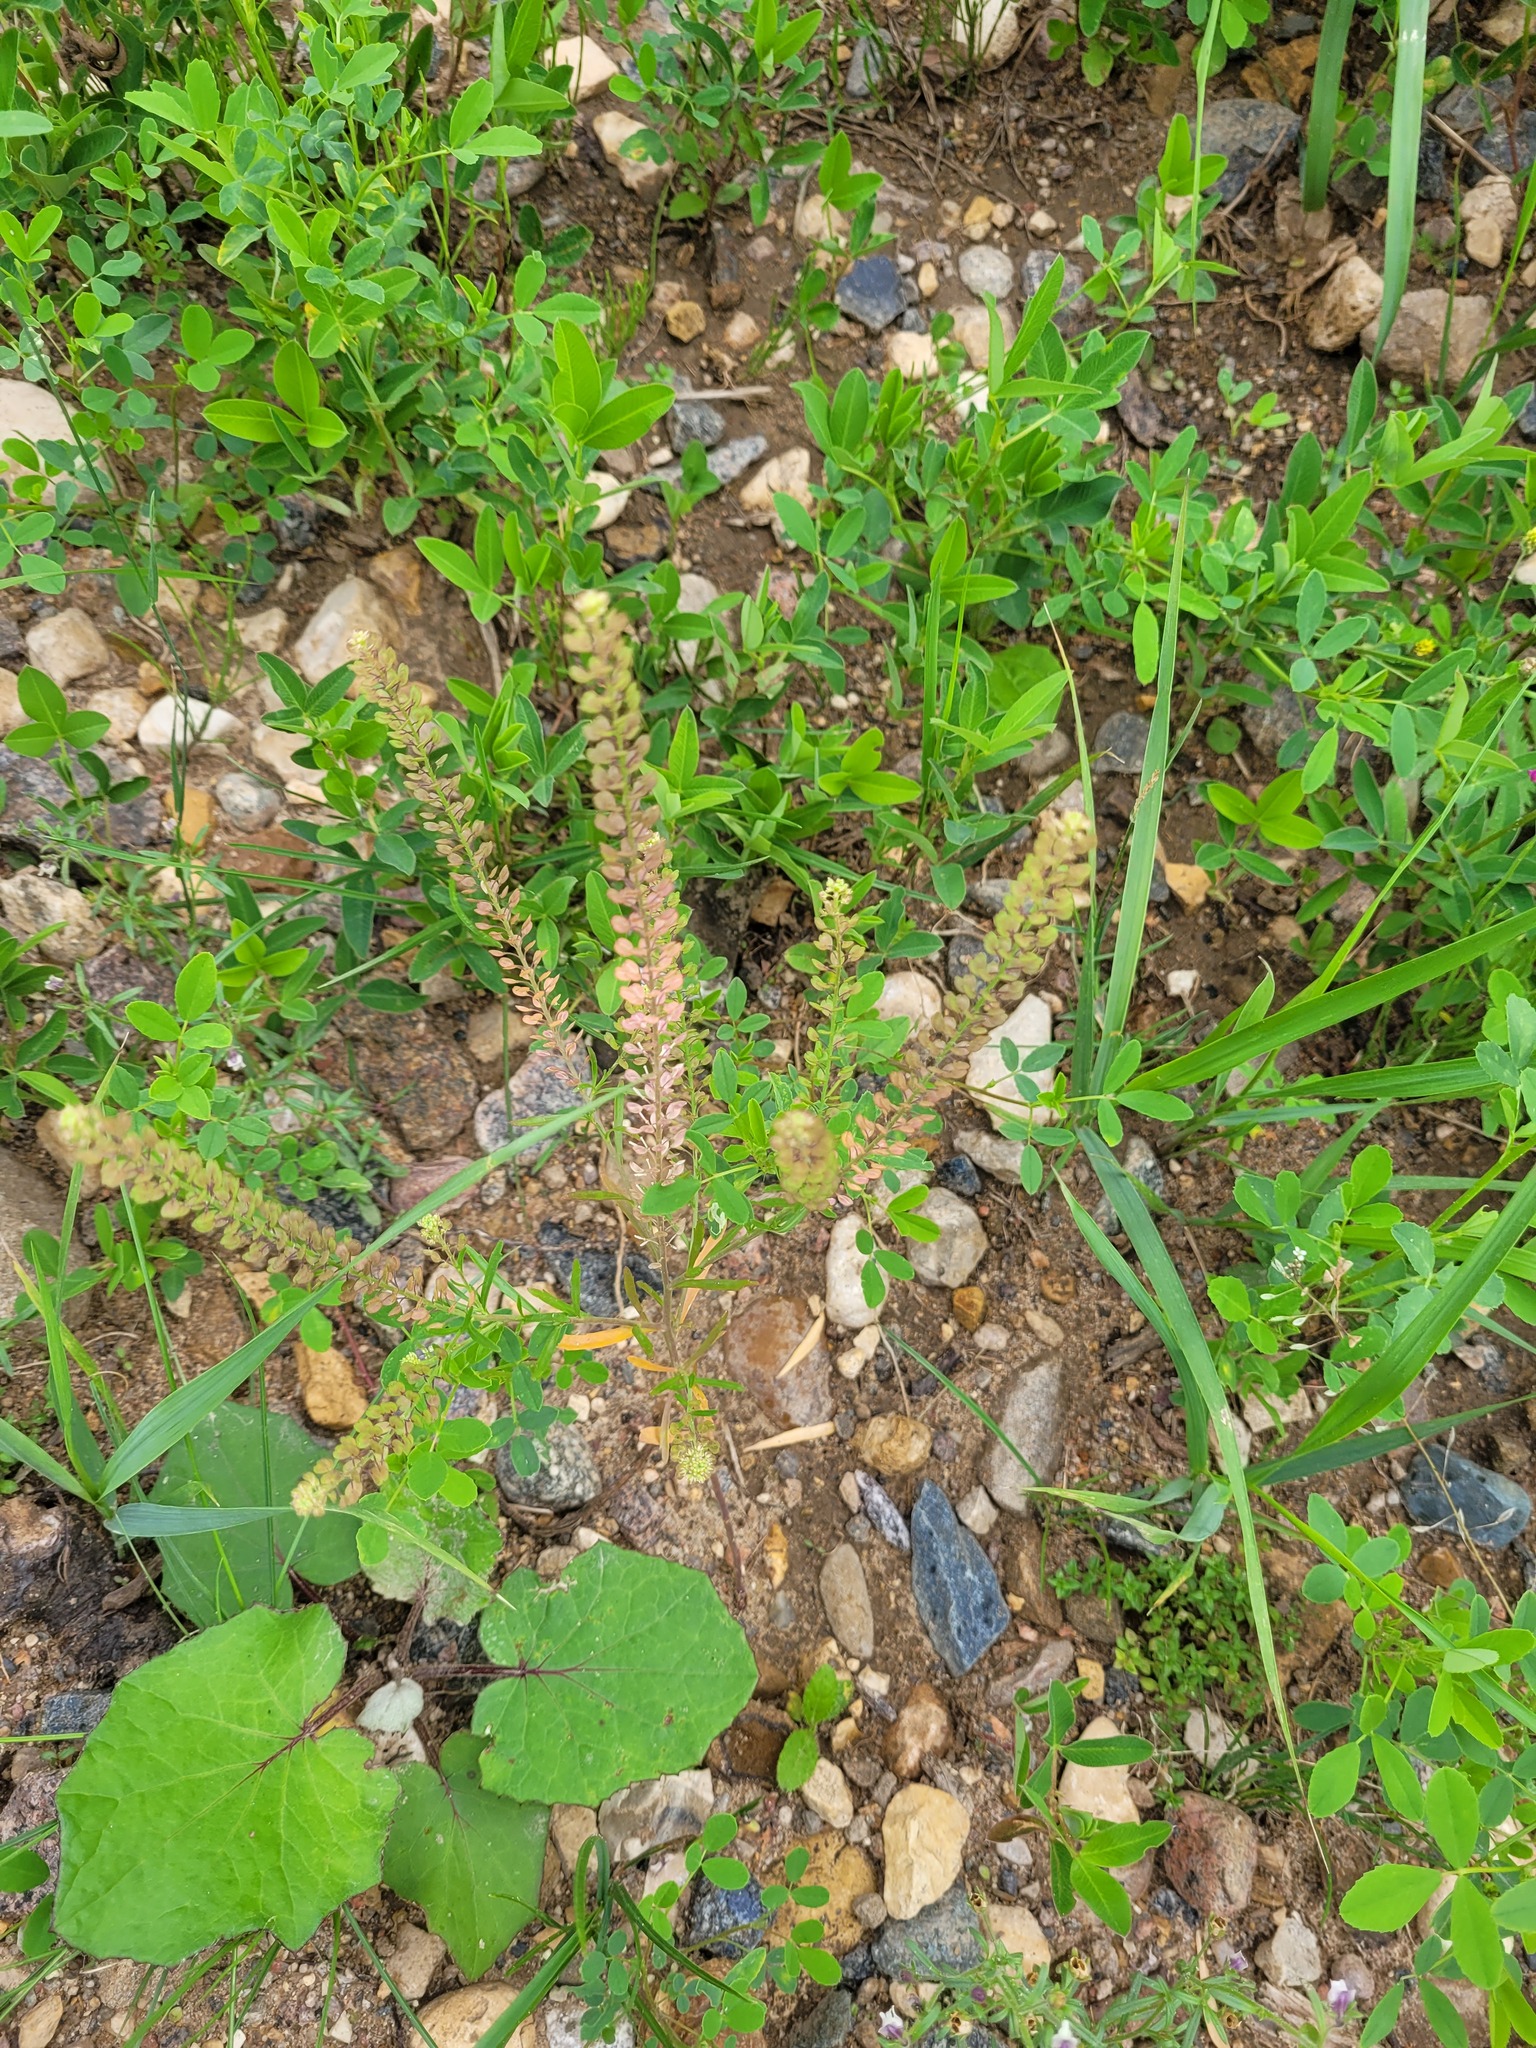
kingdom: Plantae
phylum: Tracheophyta
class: Magnoliopsida
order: Brassicales
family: Brassicaceae
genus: Lepidium
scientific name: Lepidium densiflorum
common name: Miner's pepperwort
